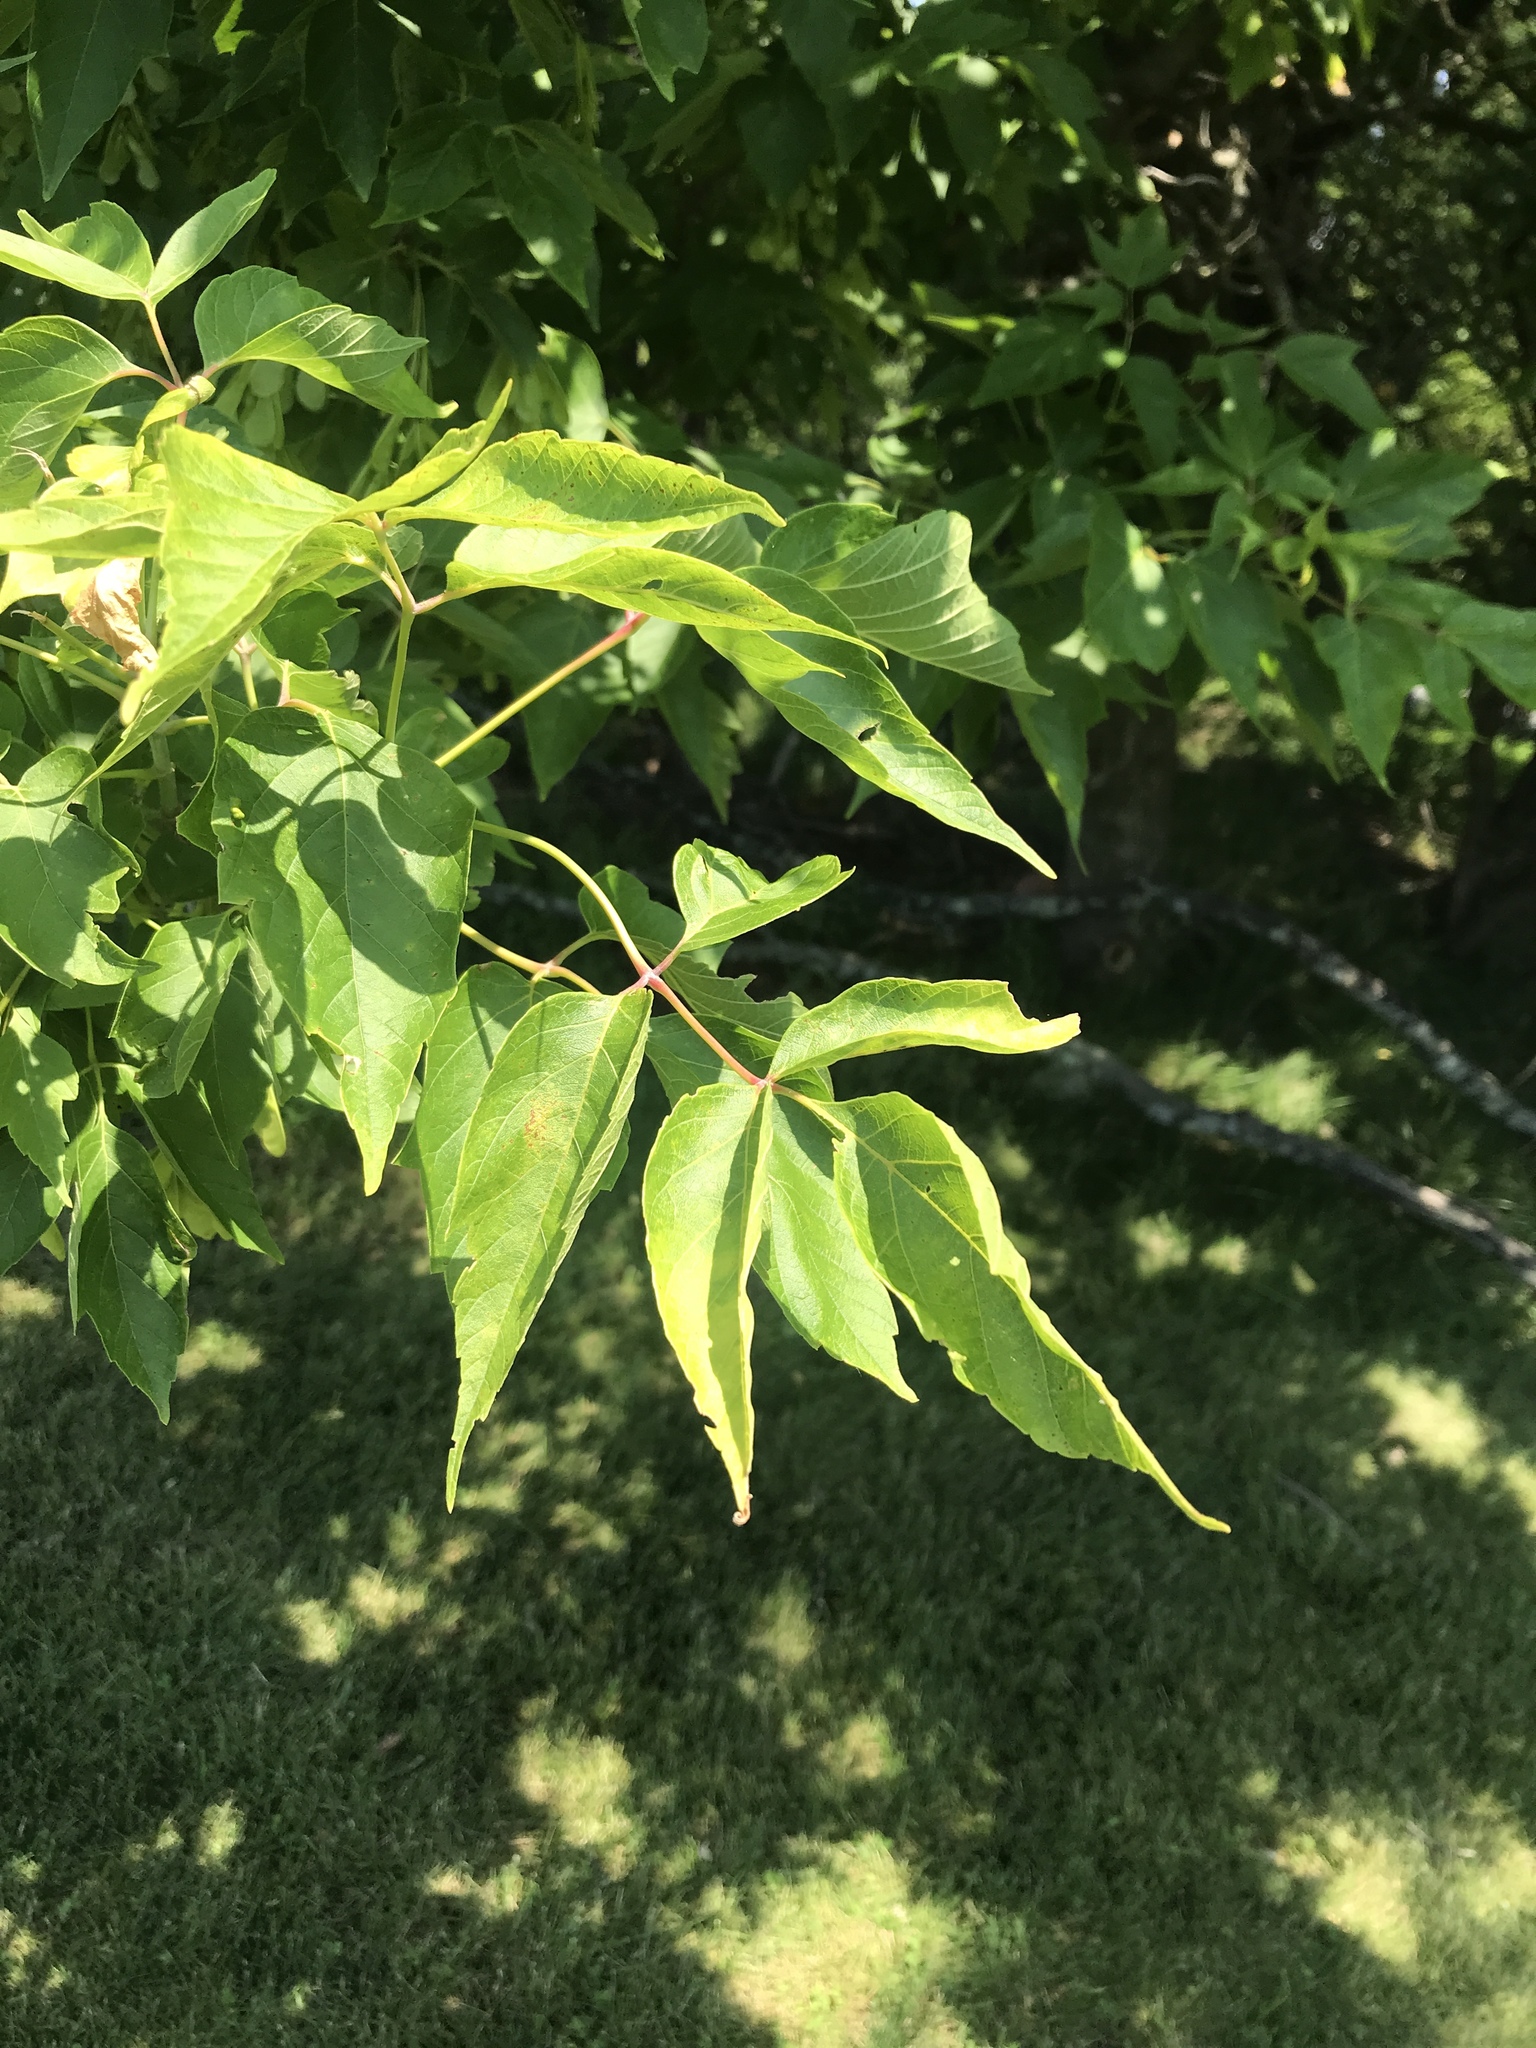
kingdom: Plantae
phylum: Tracheophyta
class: Magnoliopsida
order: Sapindales
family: Sapindaceae
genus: Acer
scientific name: Acer negundo
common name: Ashleaf maple
